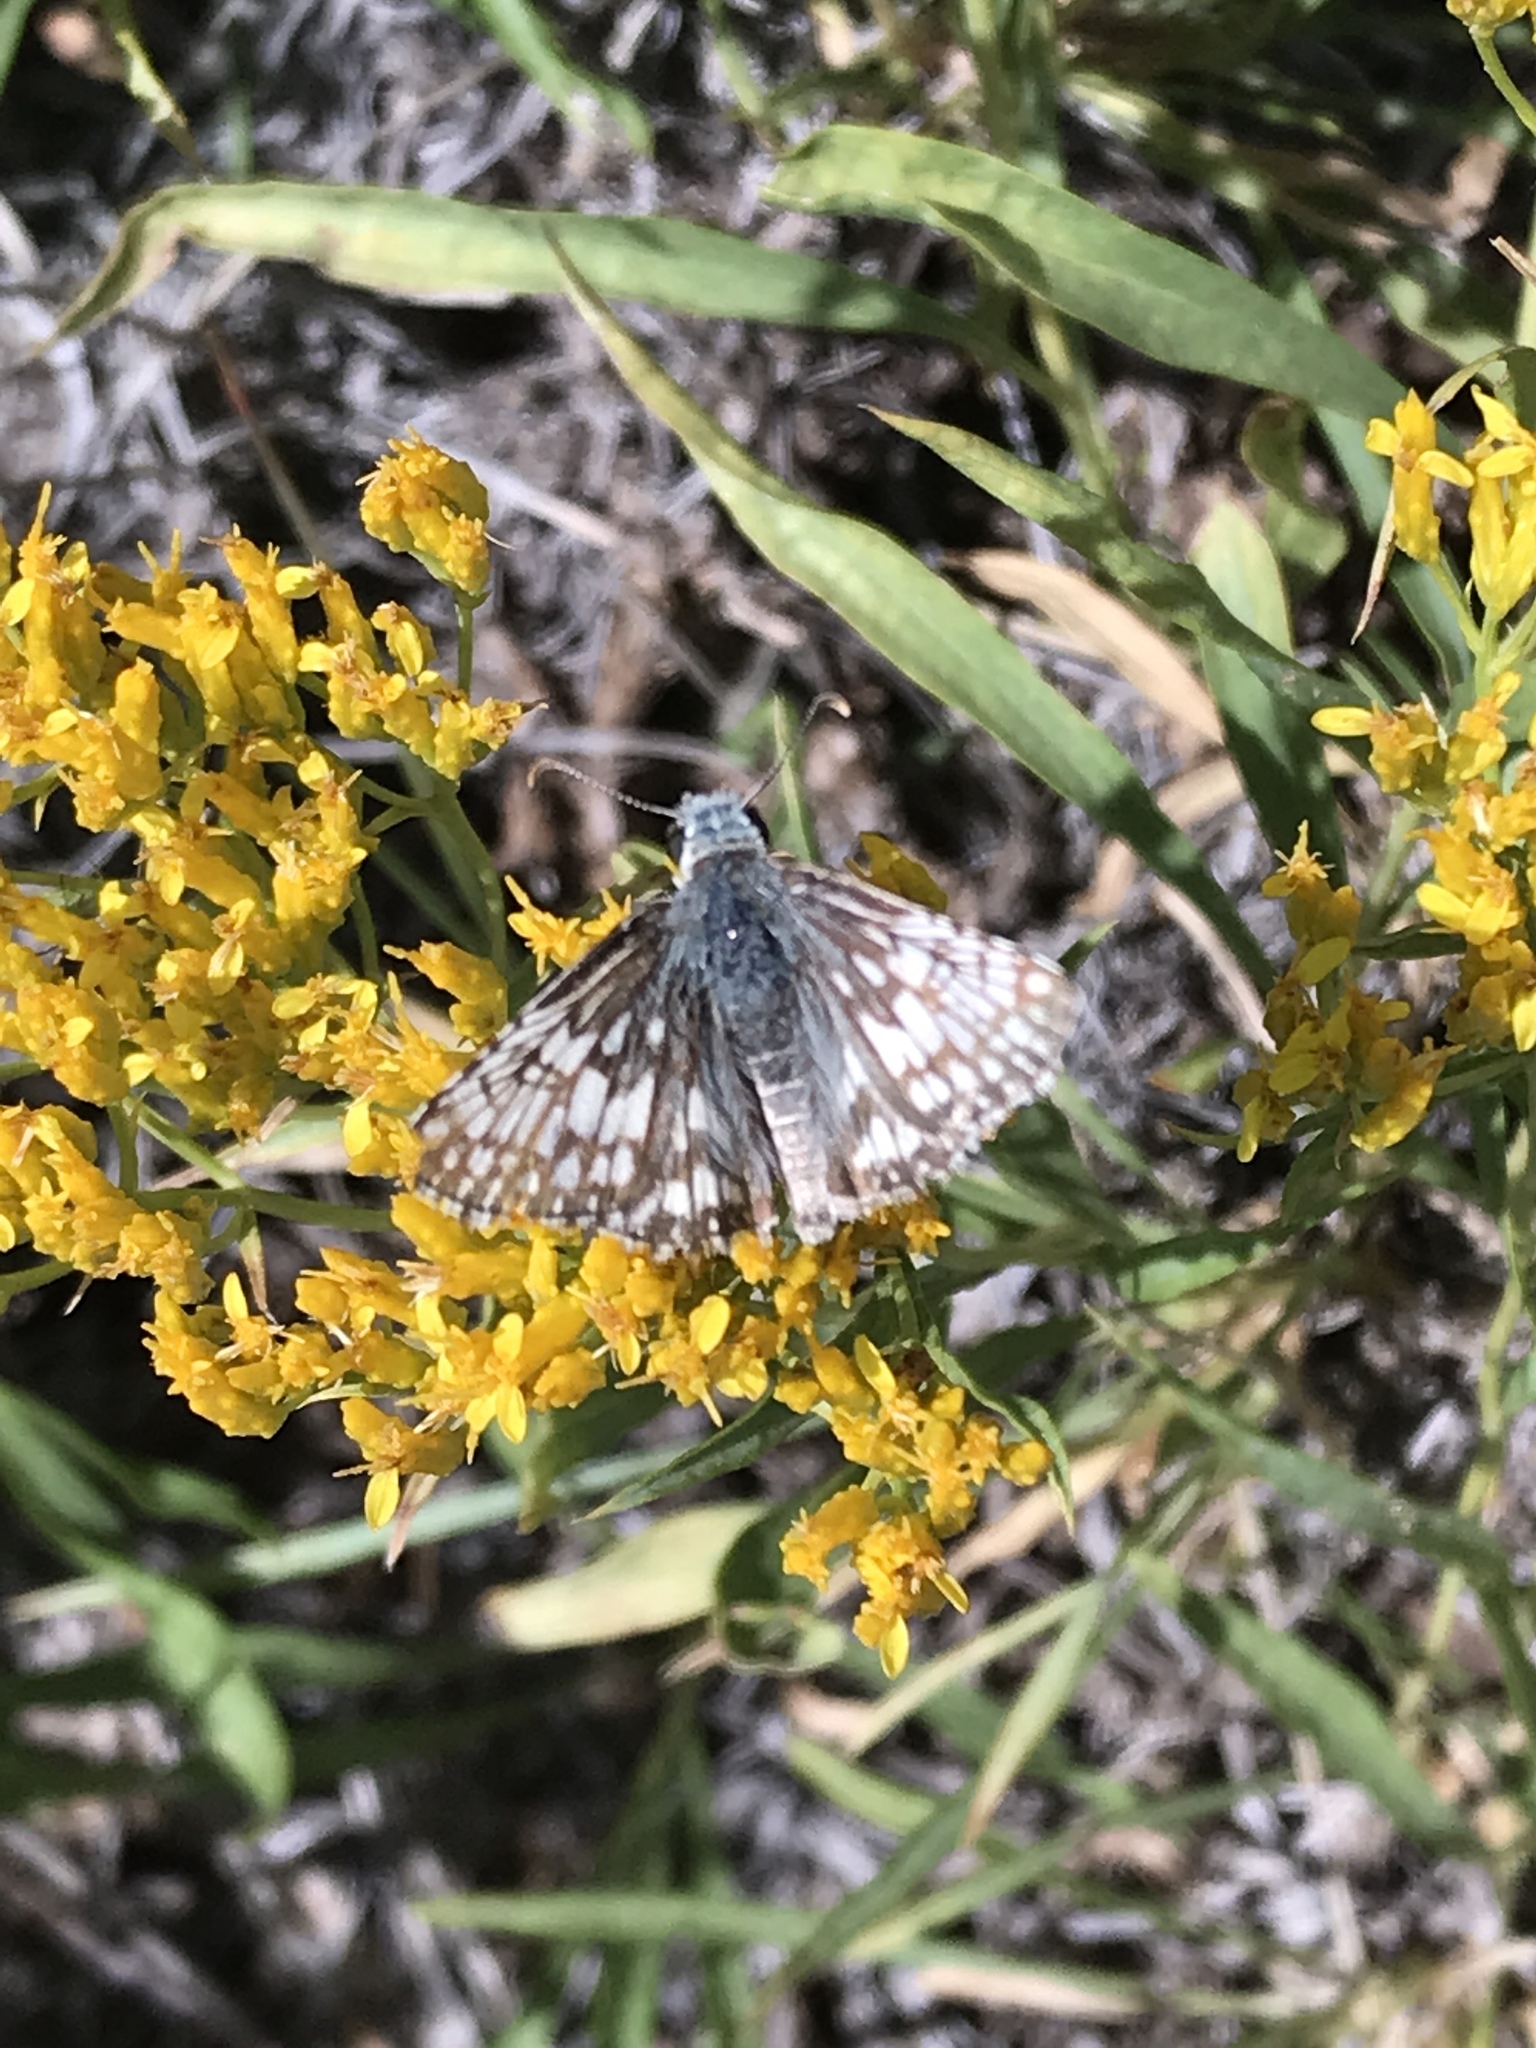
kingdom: Animalia
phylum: Arthropoda
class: Insecta
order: Lepidoptera
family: Hesperiidae
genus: Burnsius
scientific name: Burnsius communis
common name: Common checkered-skipper
